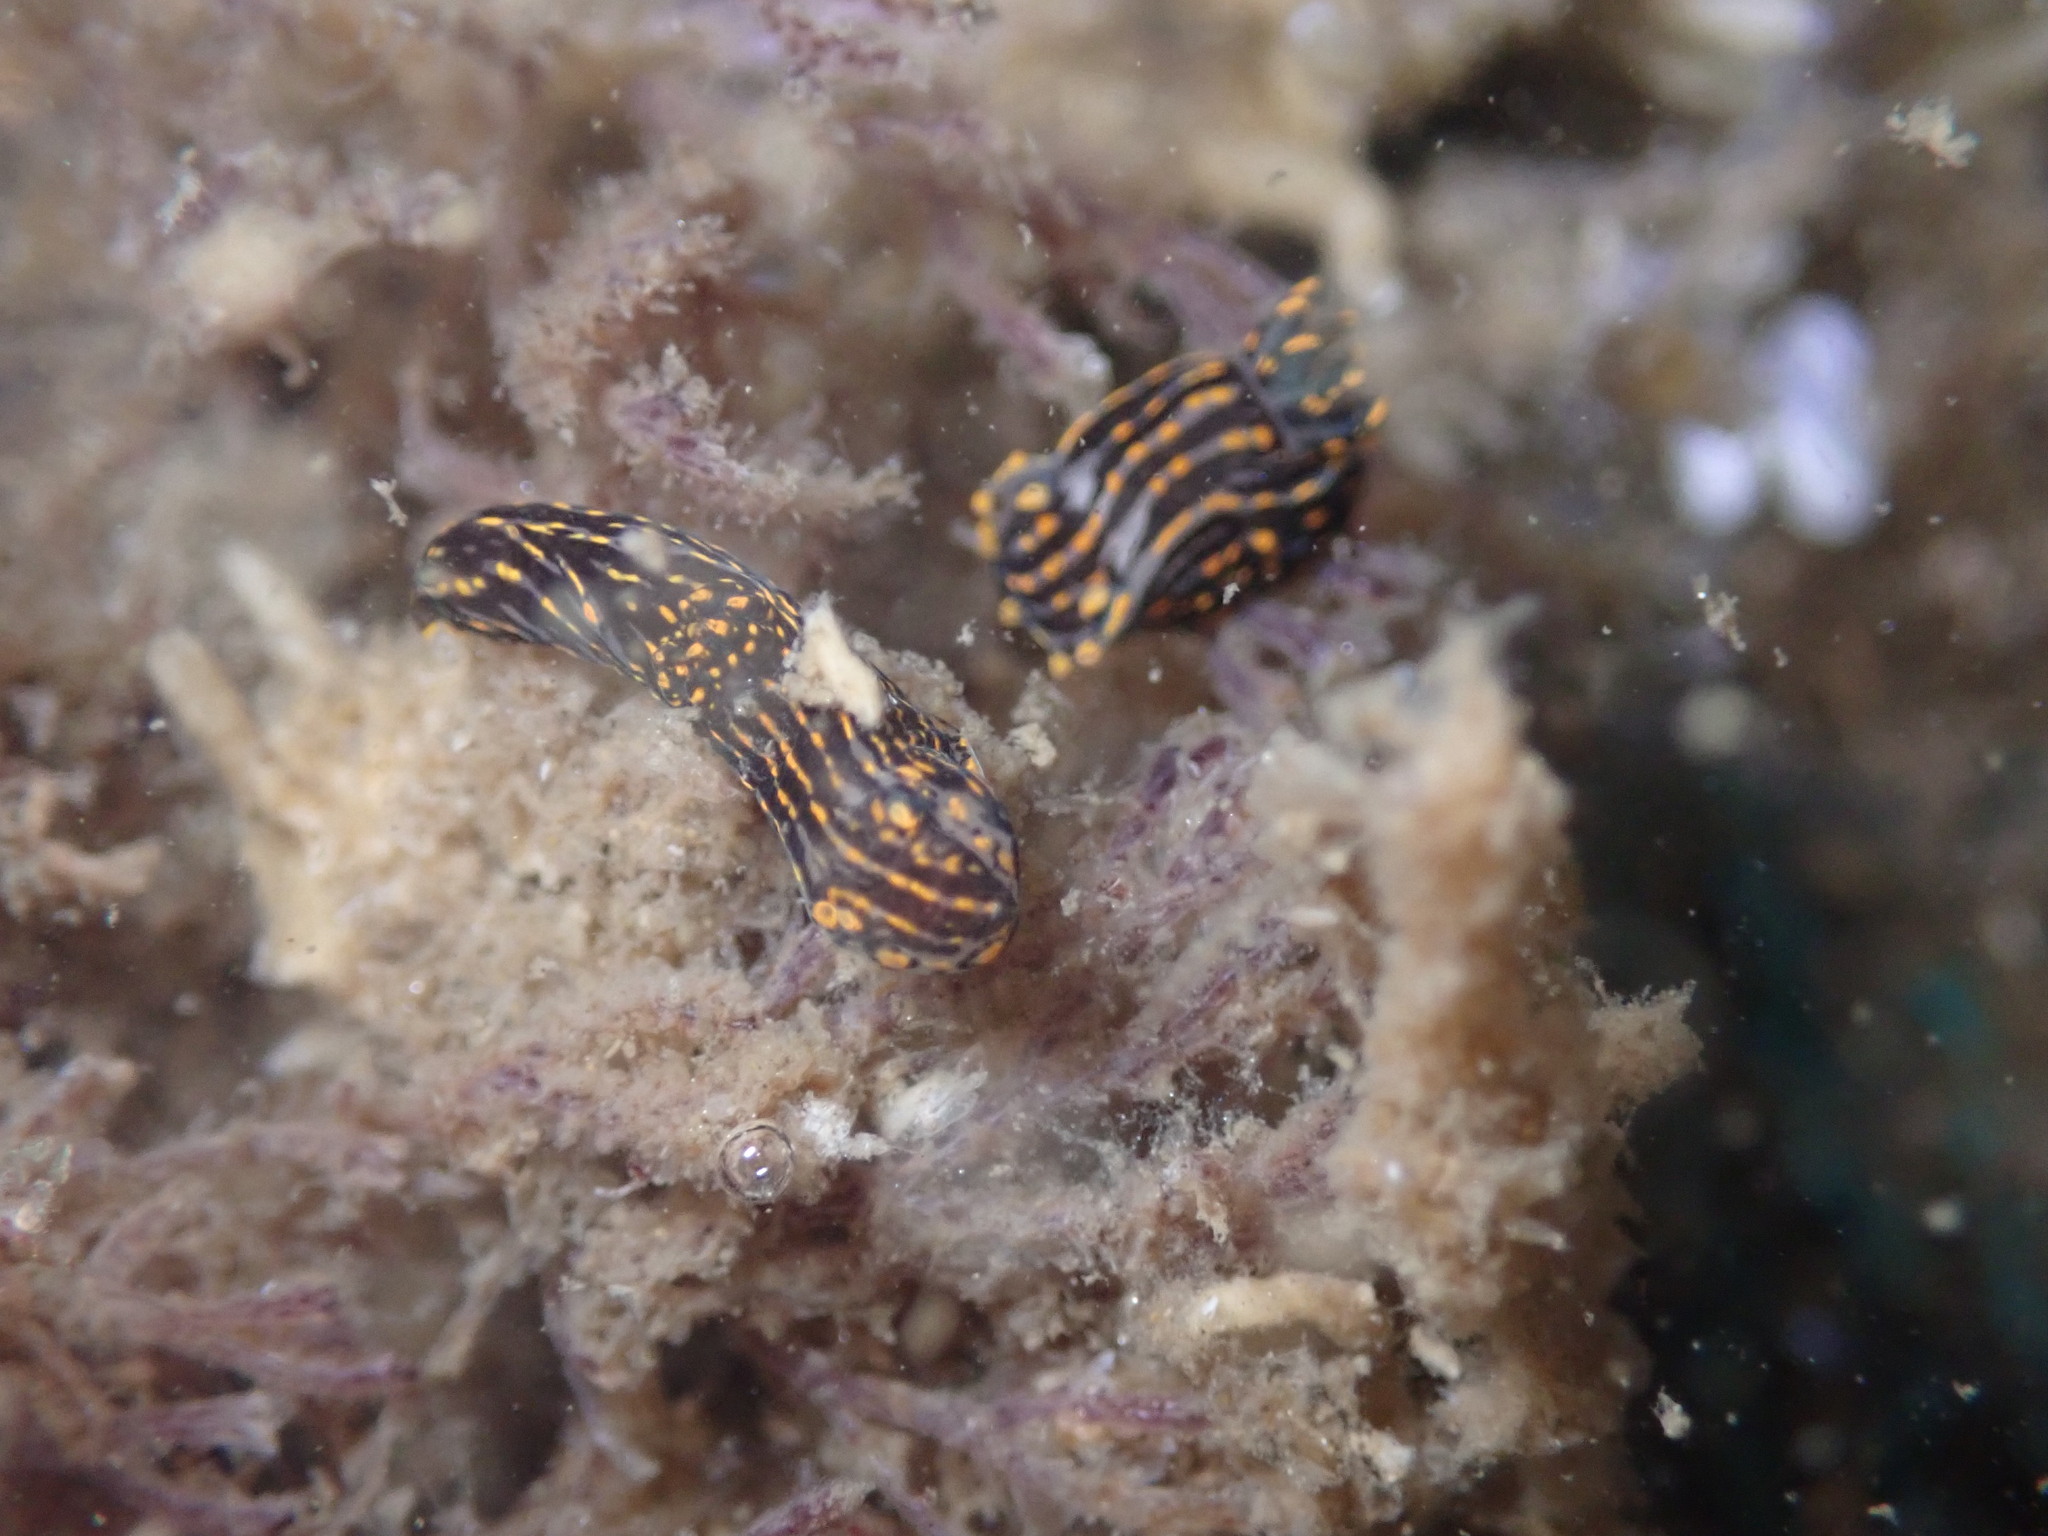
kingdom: Animalia
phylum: Mollusca
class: Gastropoda
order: Nudibranchia
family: Polyceridae
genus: Polycera
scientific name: Polycera atra
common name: Orange-spike polycera
